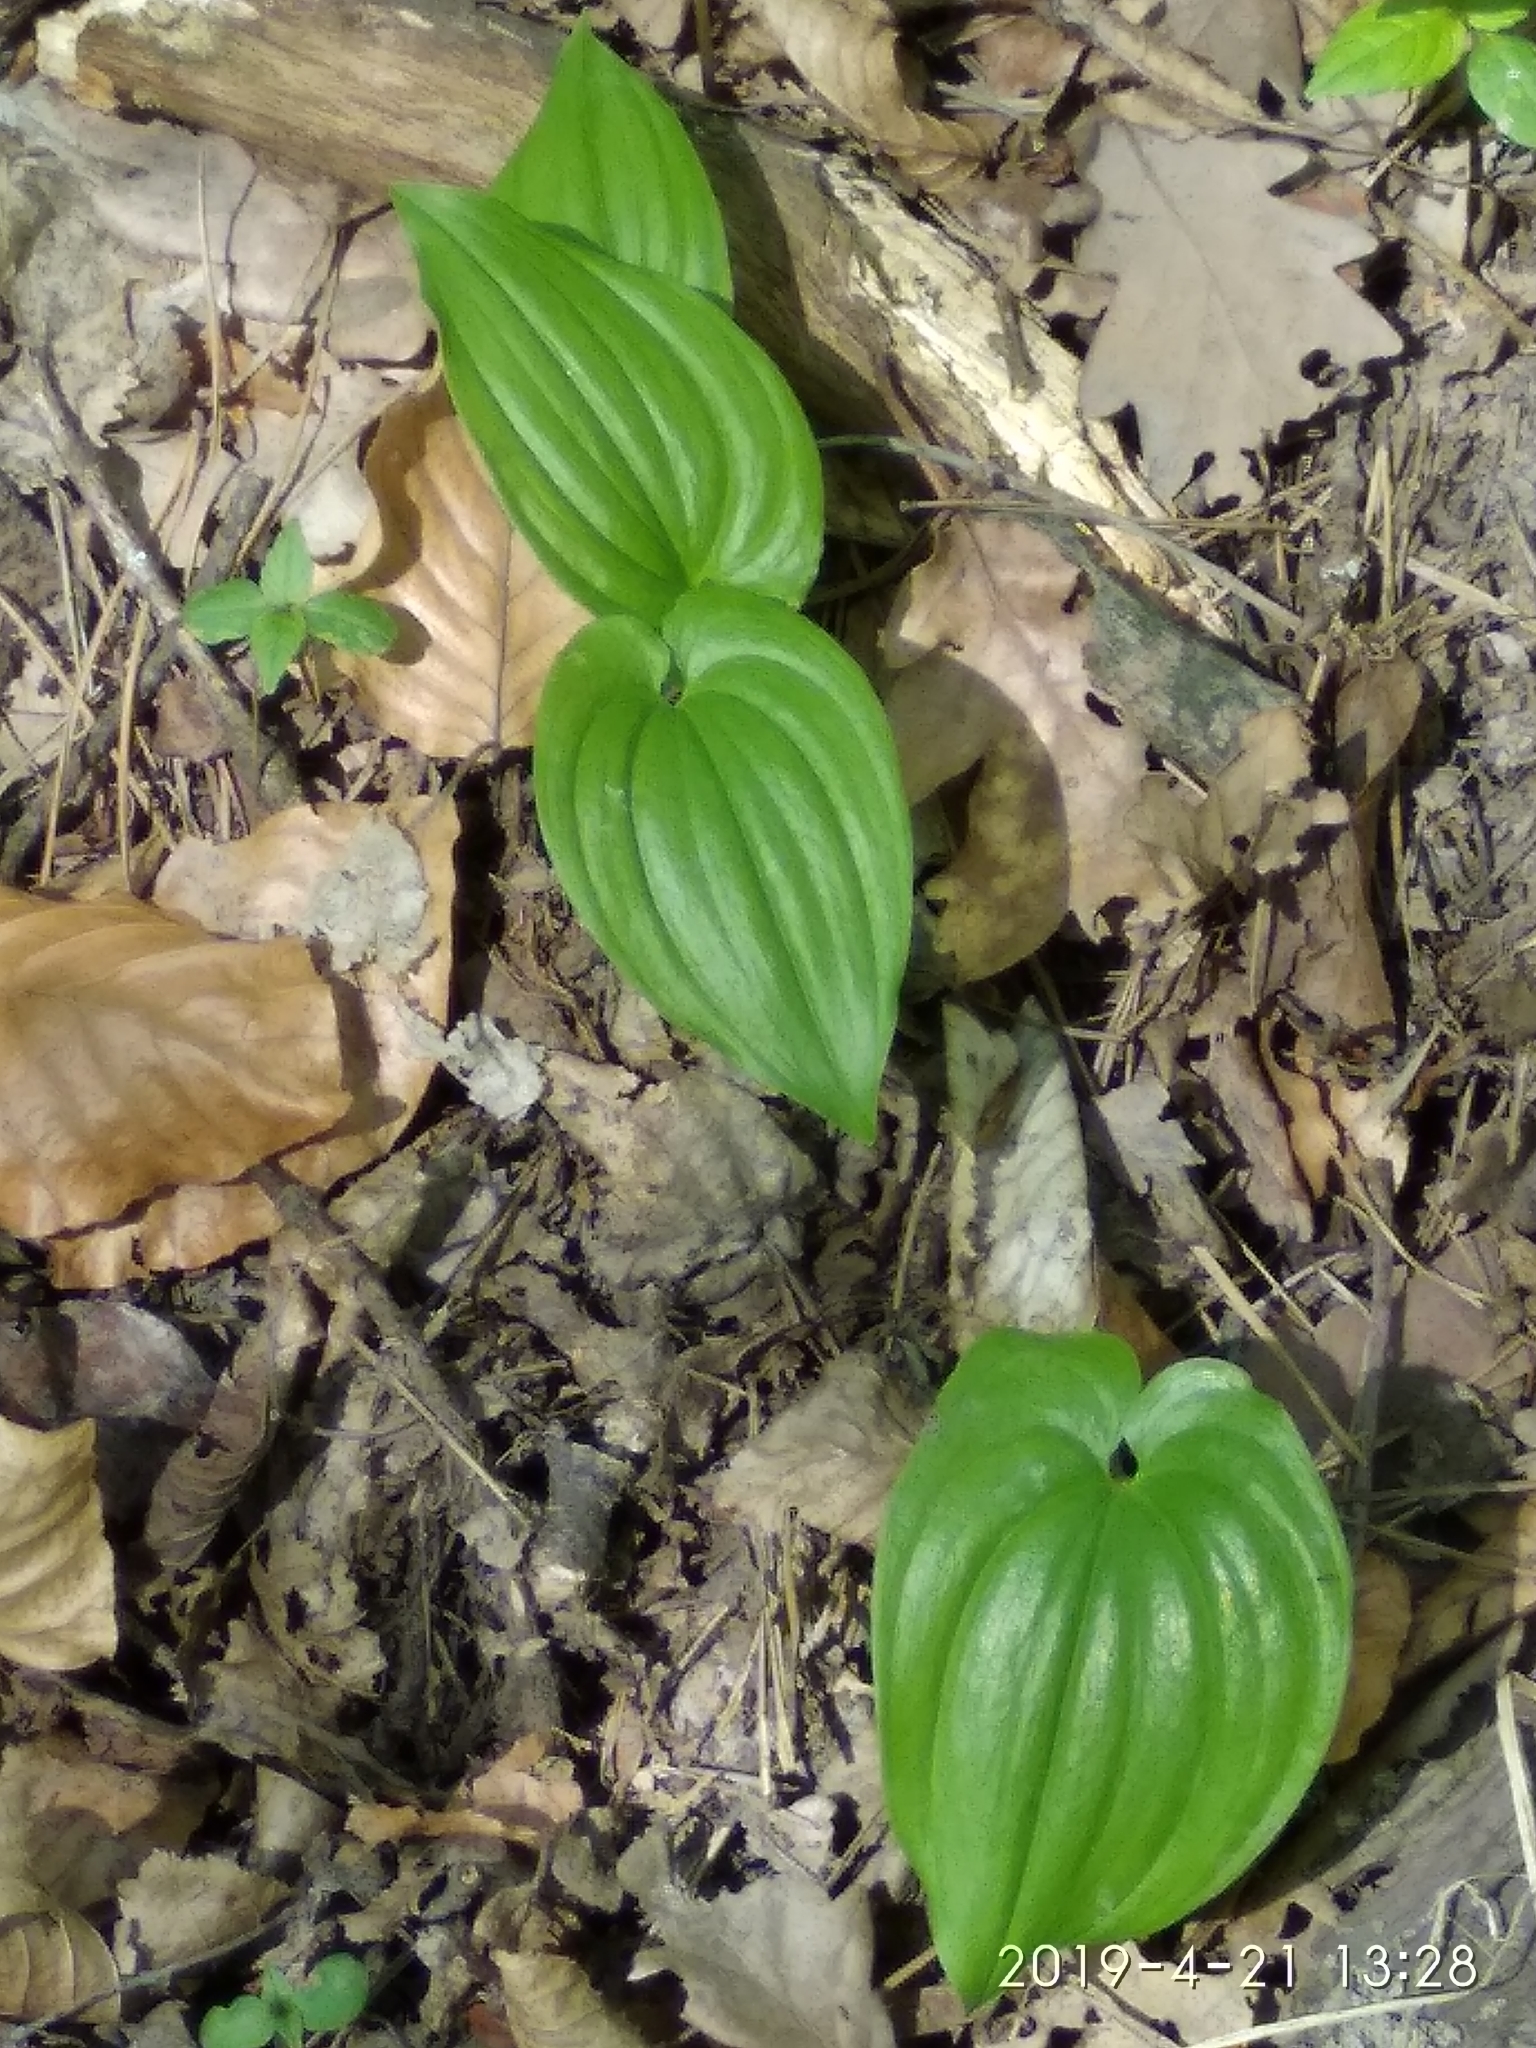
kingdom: Plantae
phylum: Tracheophyta
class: Liliopsida
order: Asparagales
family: Asparagaceae
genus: Maianthemum
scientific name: Maianthemum bifolium
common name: May lily
